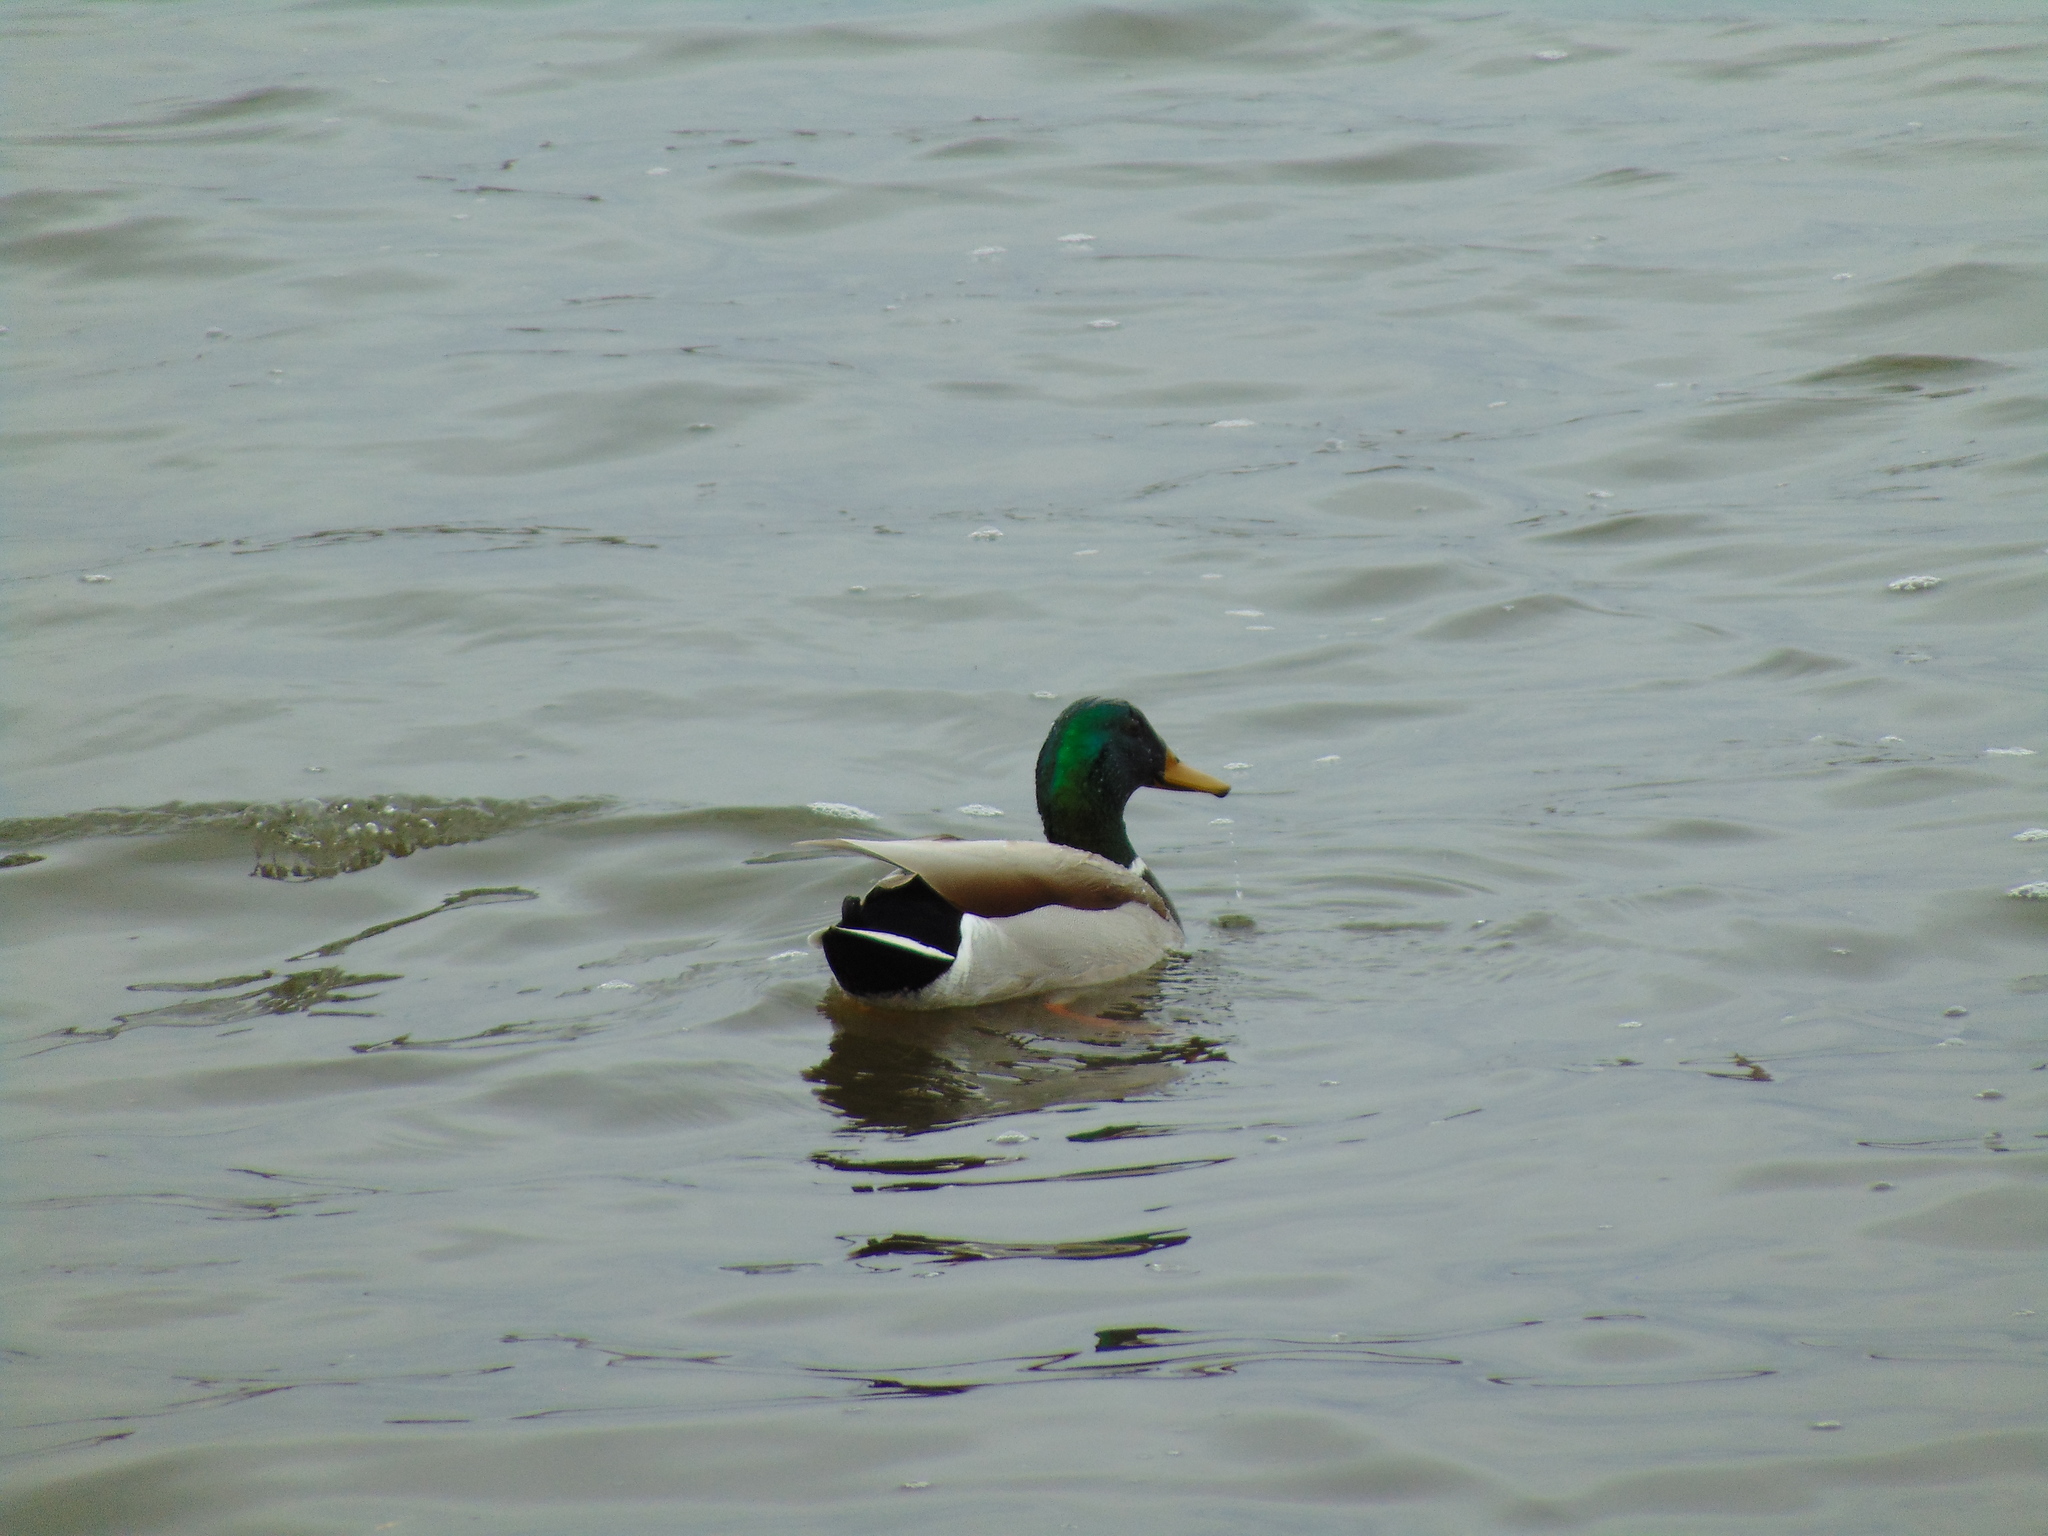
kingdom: Animalia
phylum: Chordata
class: Aves
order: Anseriformes
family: Anatidae
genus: Anas
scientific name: Anas platyrhynchos
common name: Mallard
